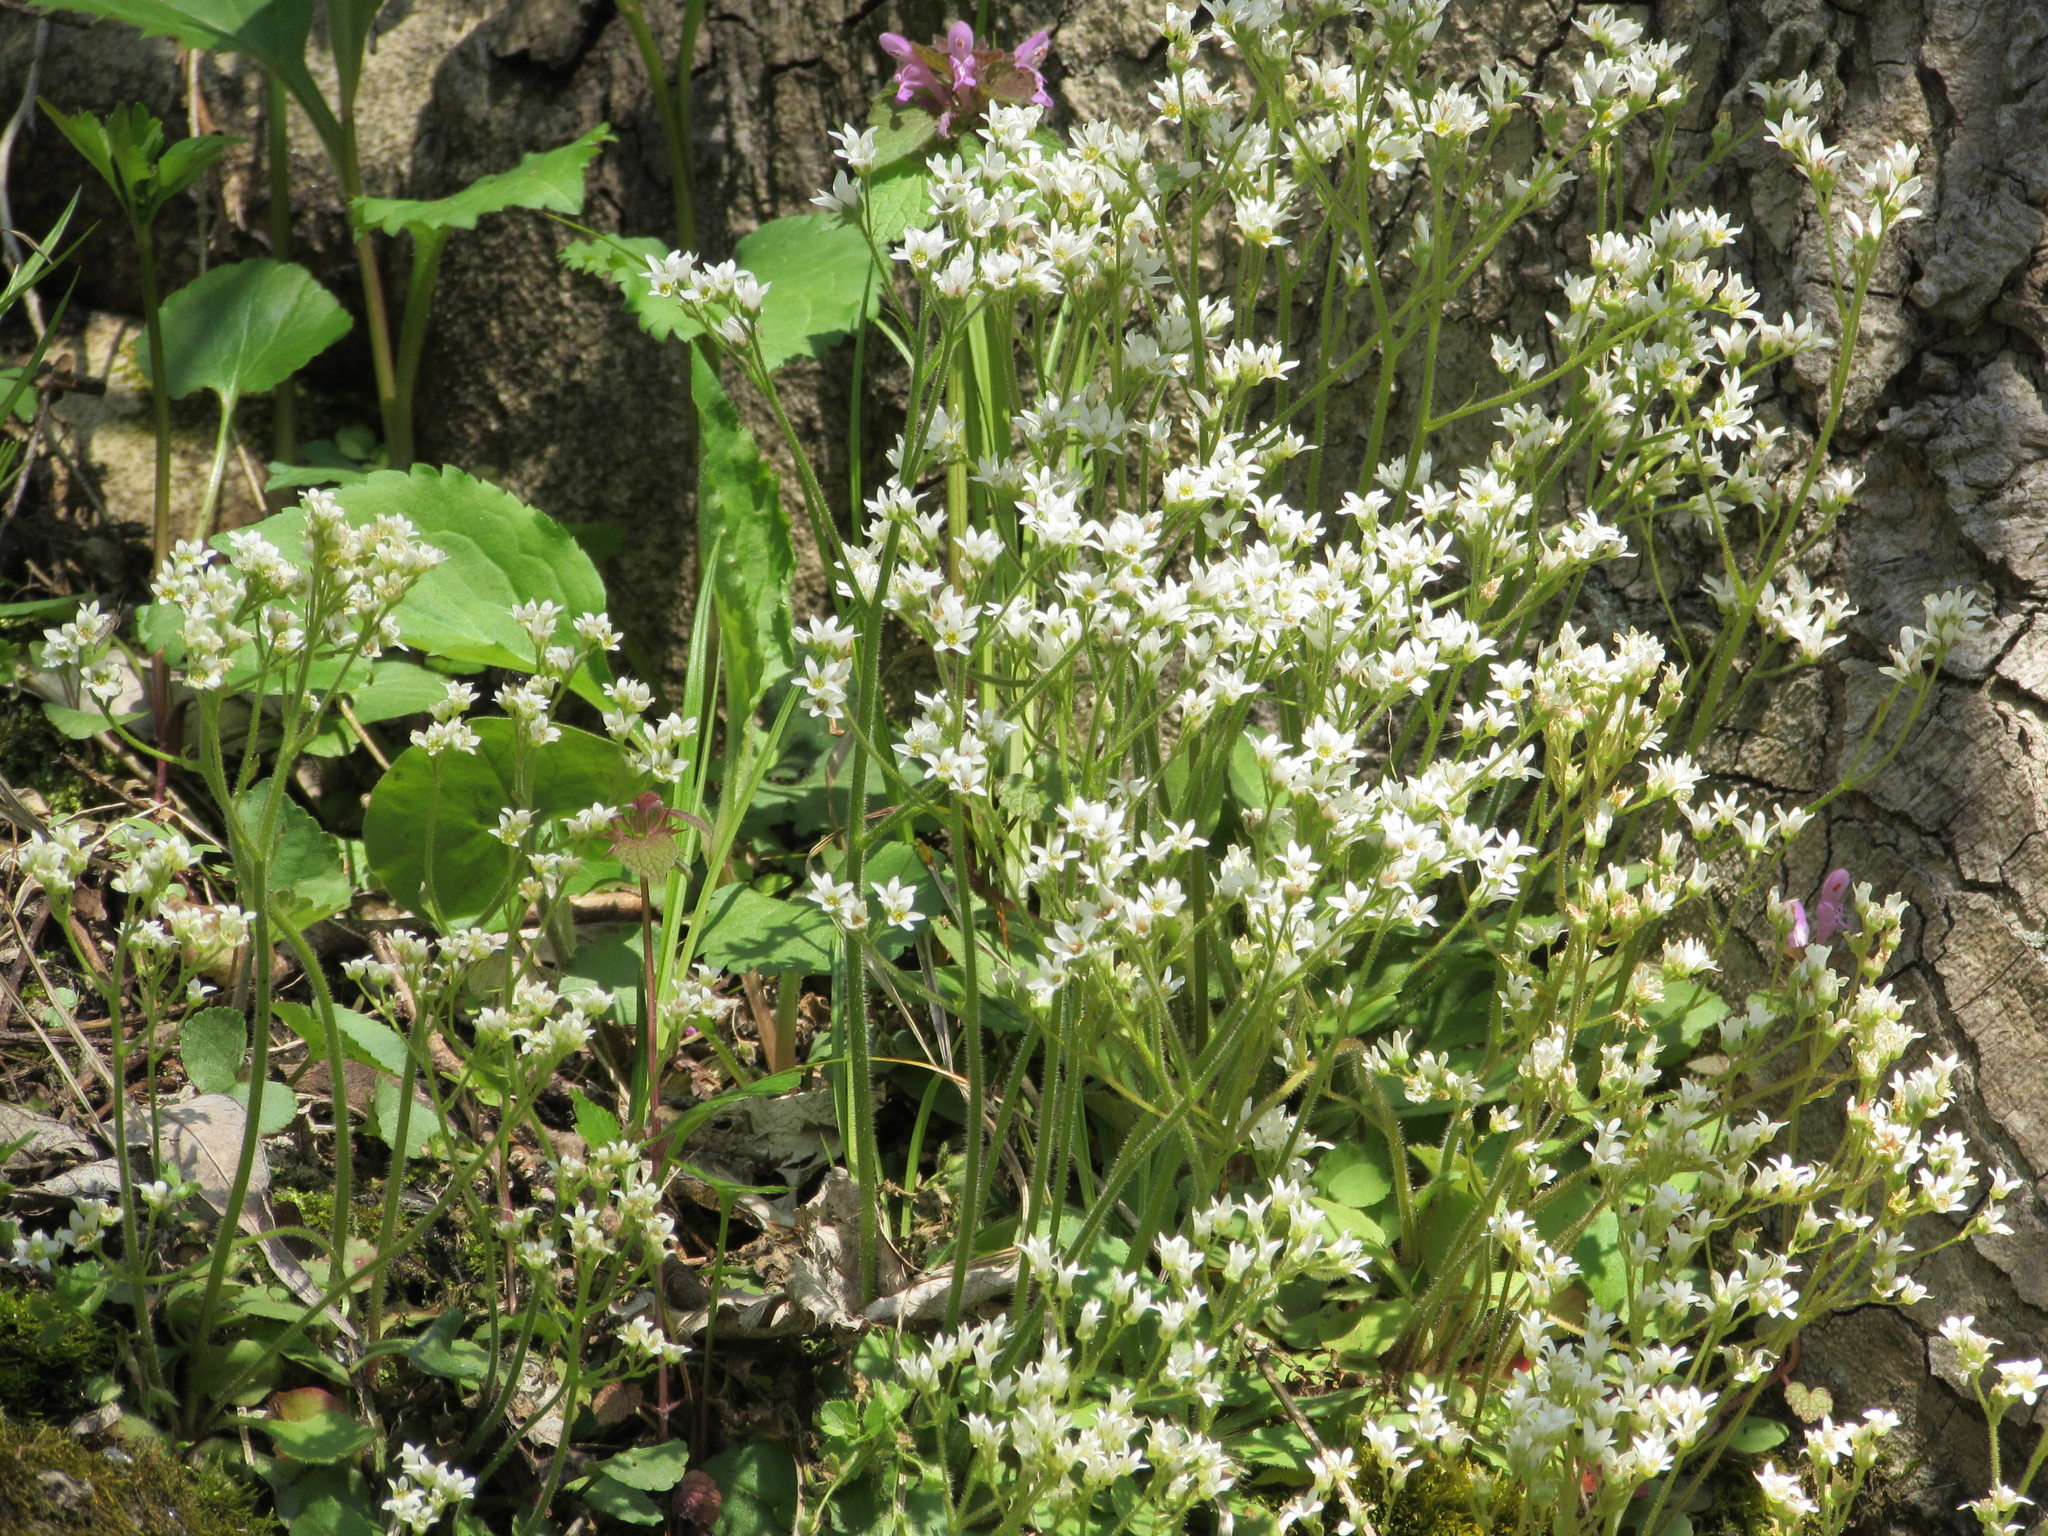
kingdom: Plantae
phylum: Tracheophyta
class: Magnoliopsida
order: Saxifragales
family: Saxifragaceae
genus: Micranthes
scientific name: Micranthes virginiensis
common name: Early saxifrage
